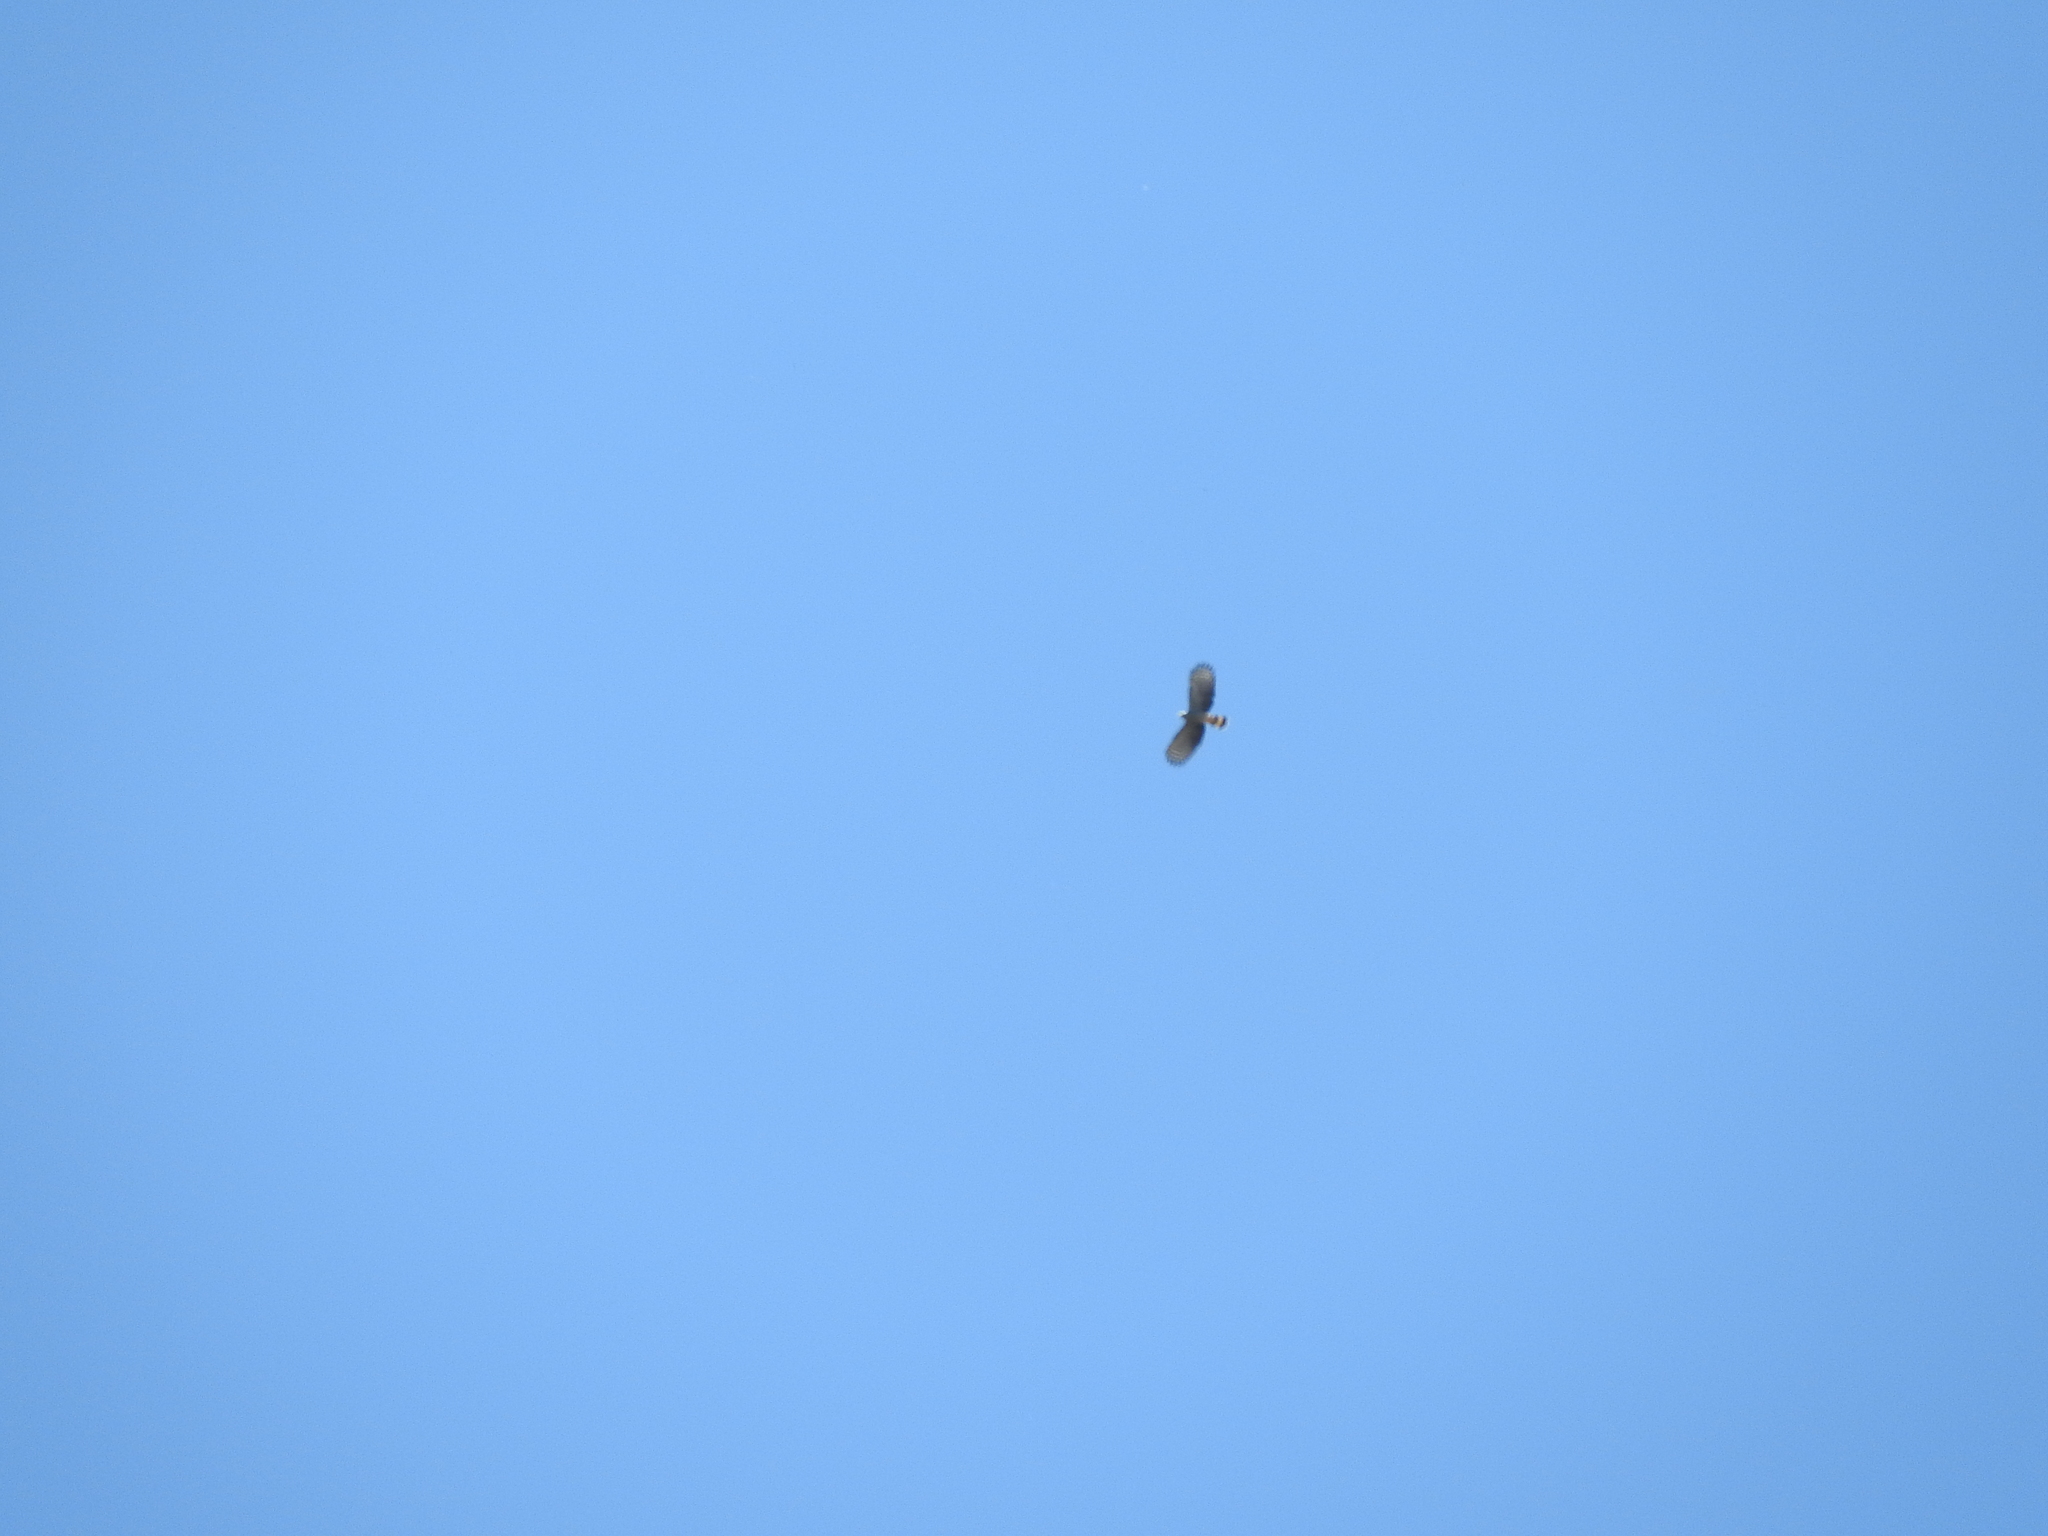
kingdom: Animalia
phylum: Chordata
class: Aves
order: Accipitriformes
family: Accipitridae
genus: Chondrohierax
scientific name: Chondrohierax uncinatus
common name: Hook-billed kite
